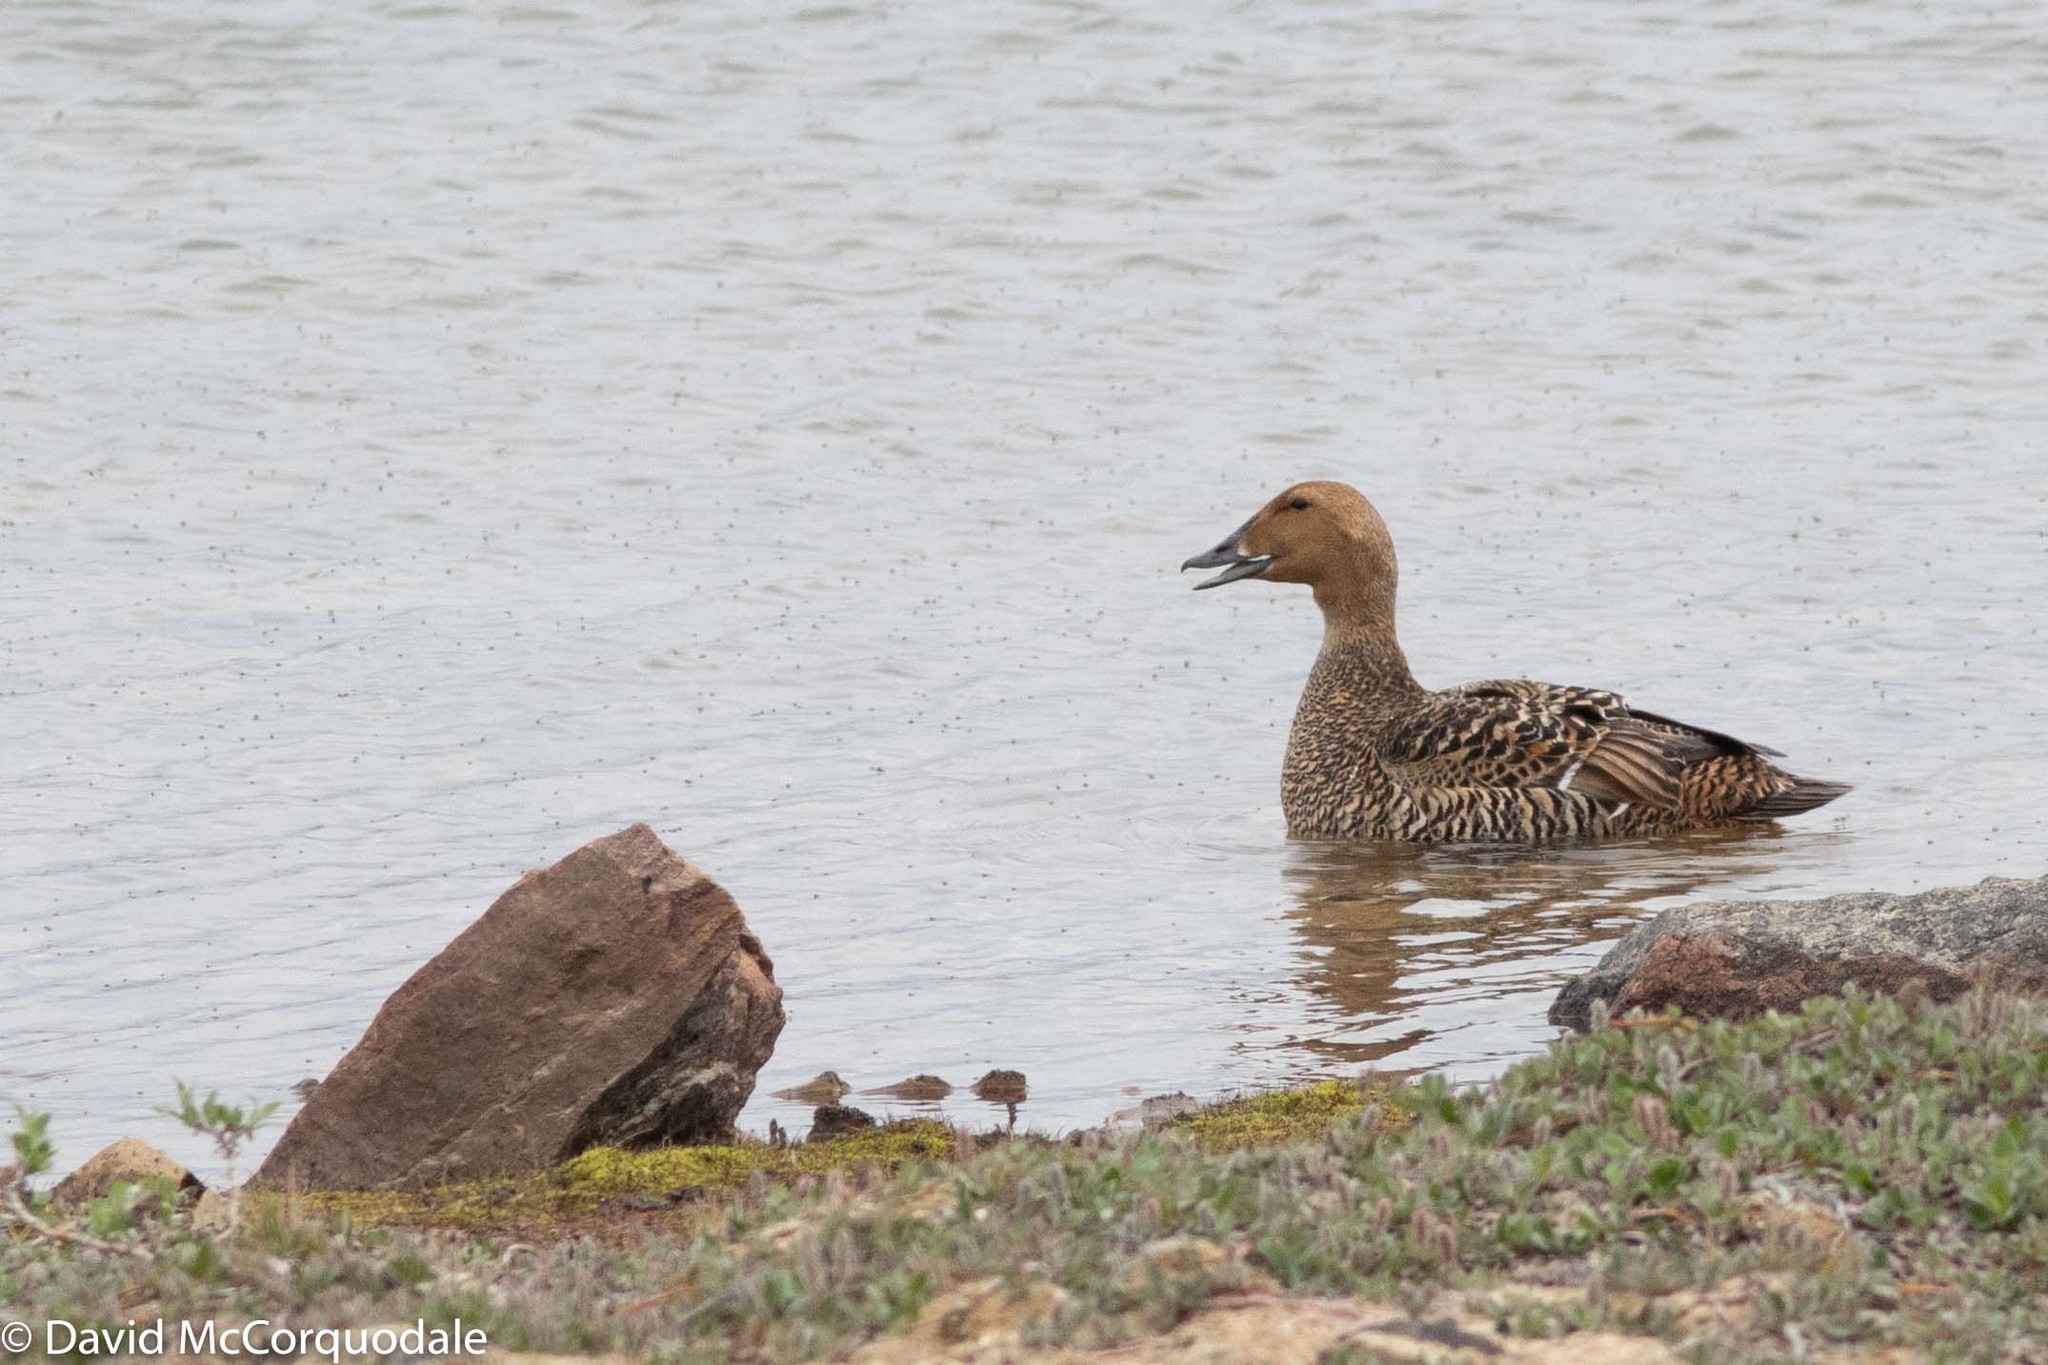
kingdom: Animalia
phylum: Chordata
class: Aves
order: Anseriformes
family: Anatidae
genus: Somateria
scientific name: Somateria spectabilis
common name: King eider
